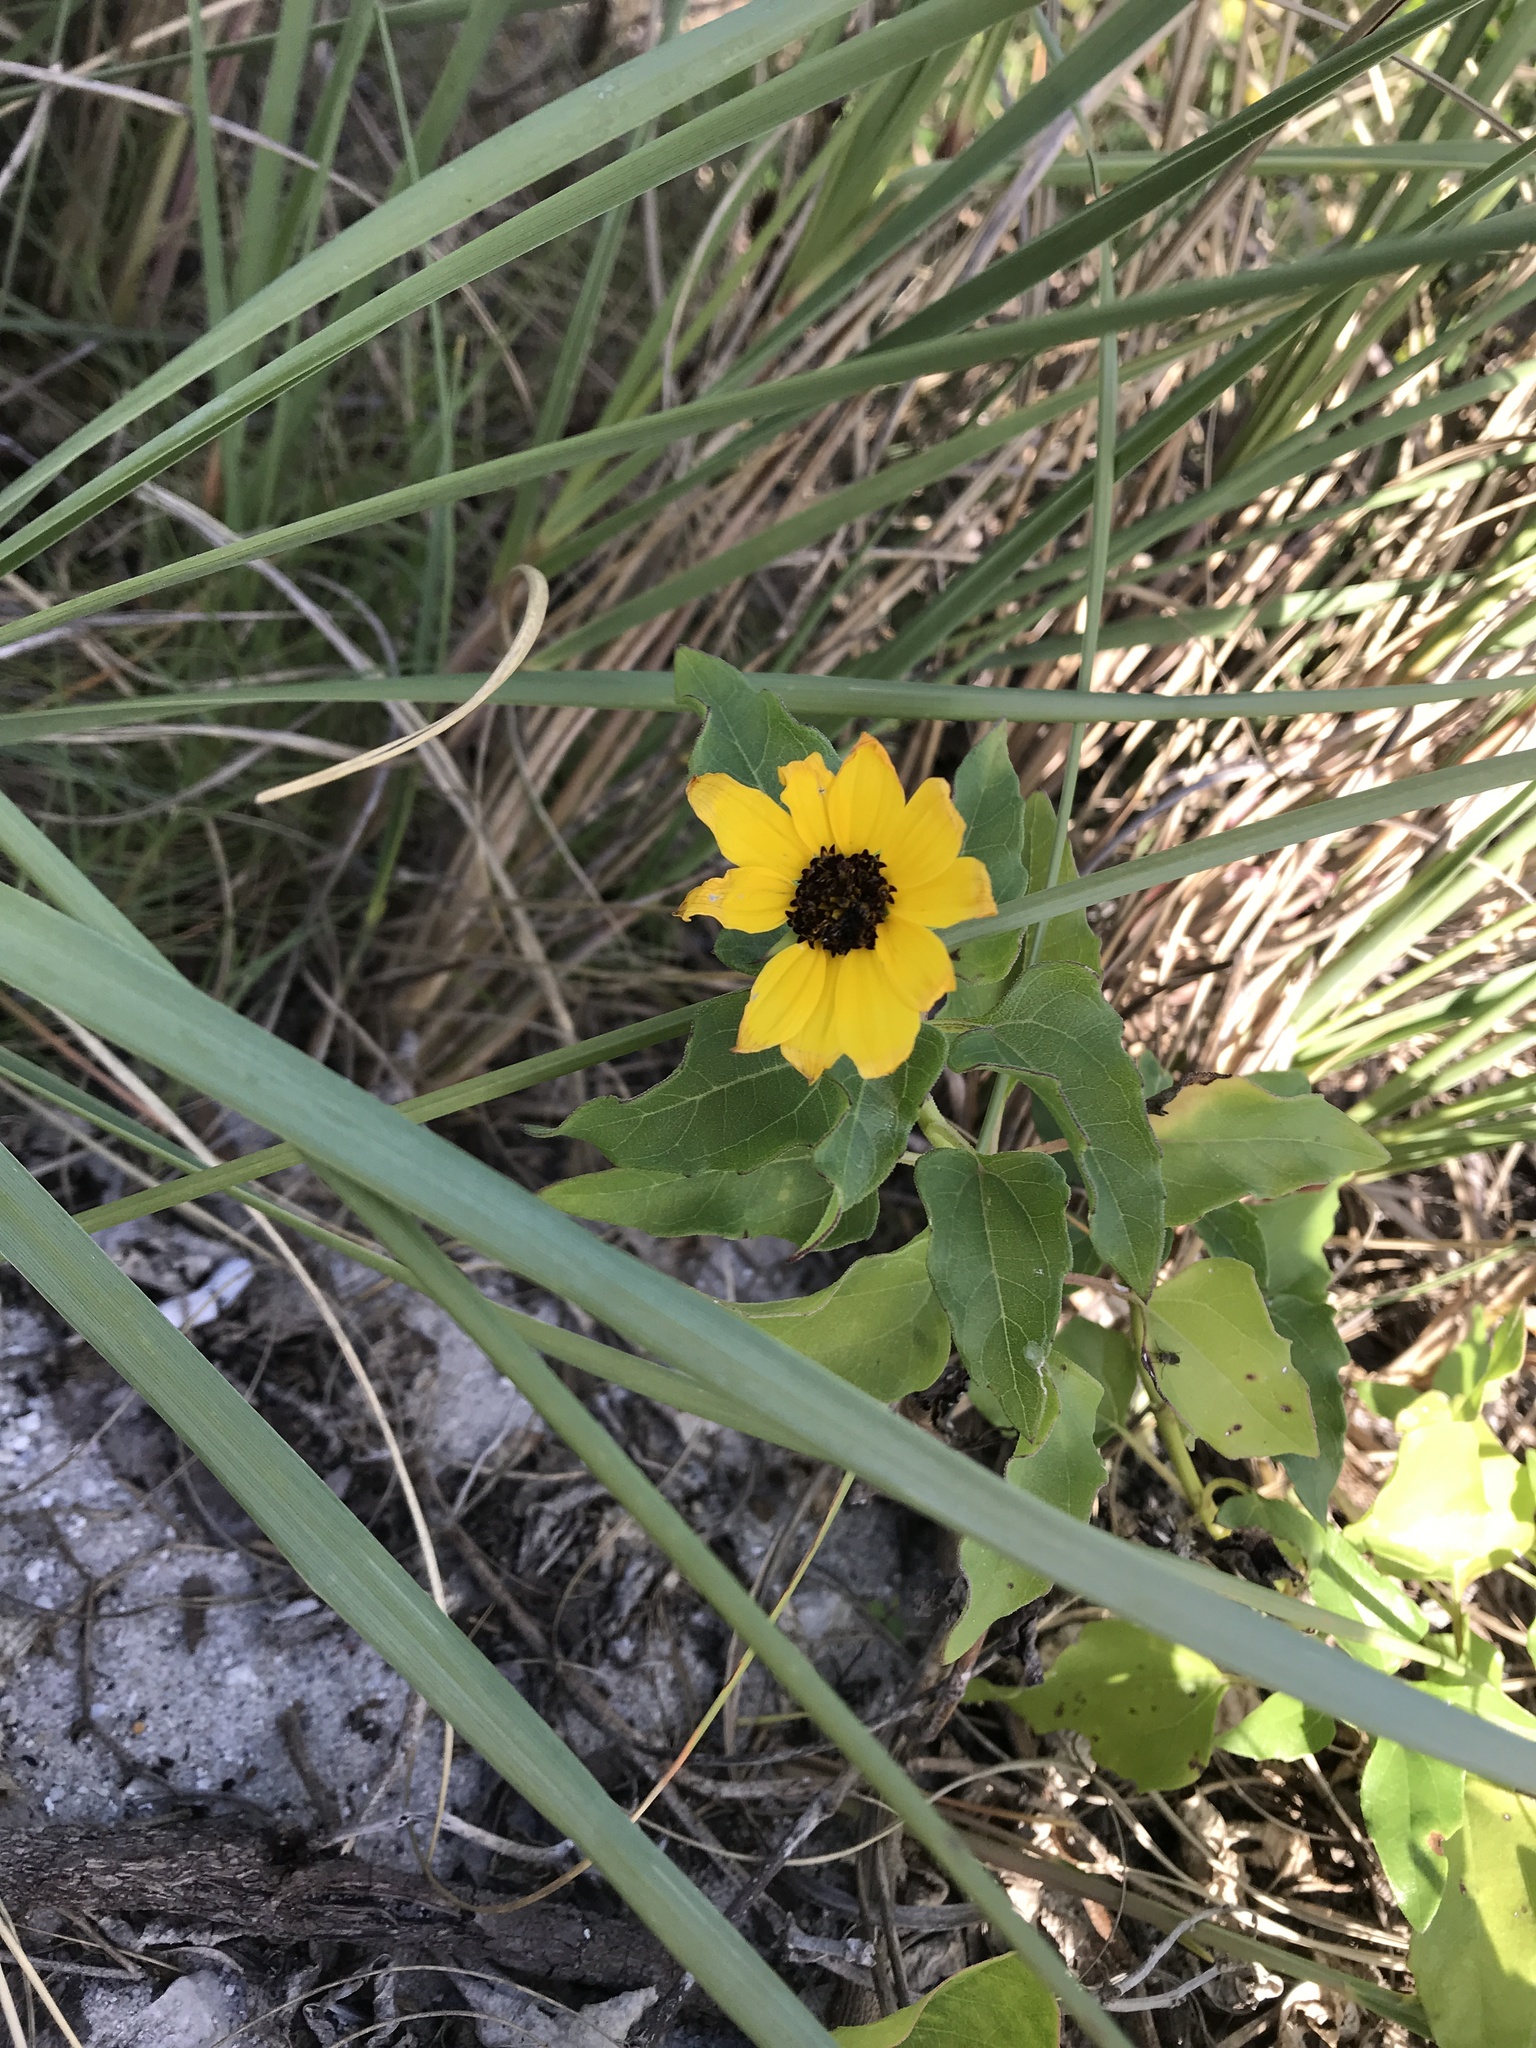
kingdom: Plantae
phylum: Tracheophyta
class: Magnoliopsida
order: Asterales
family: Asteraceae
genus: Helianthus
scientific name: Helianthus debilis
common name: Weak sunflower
